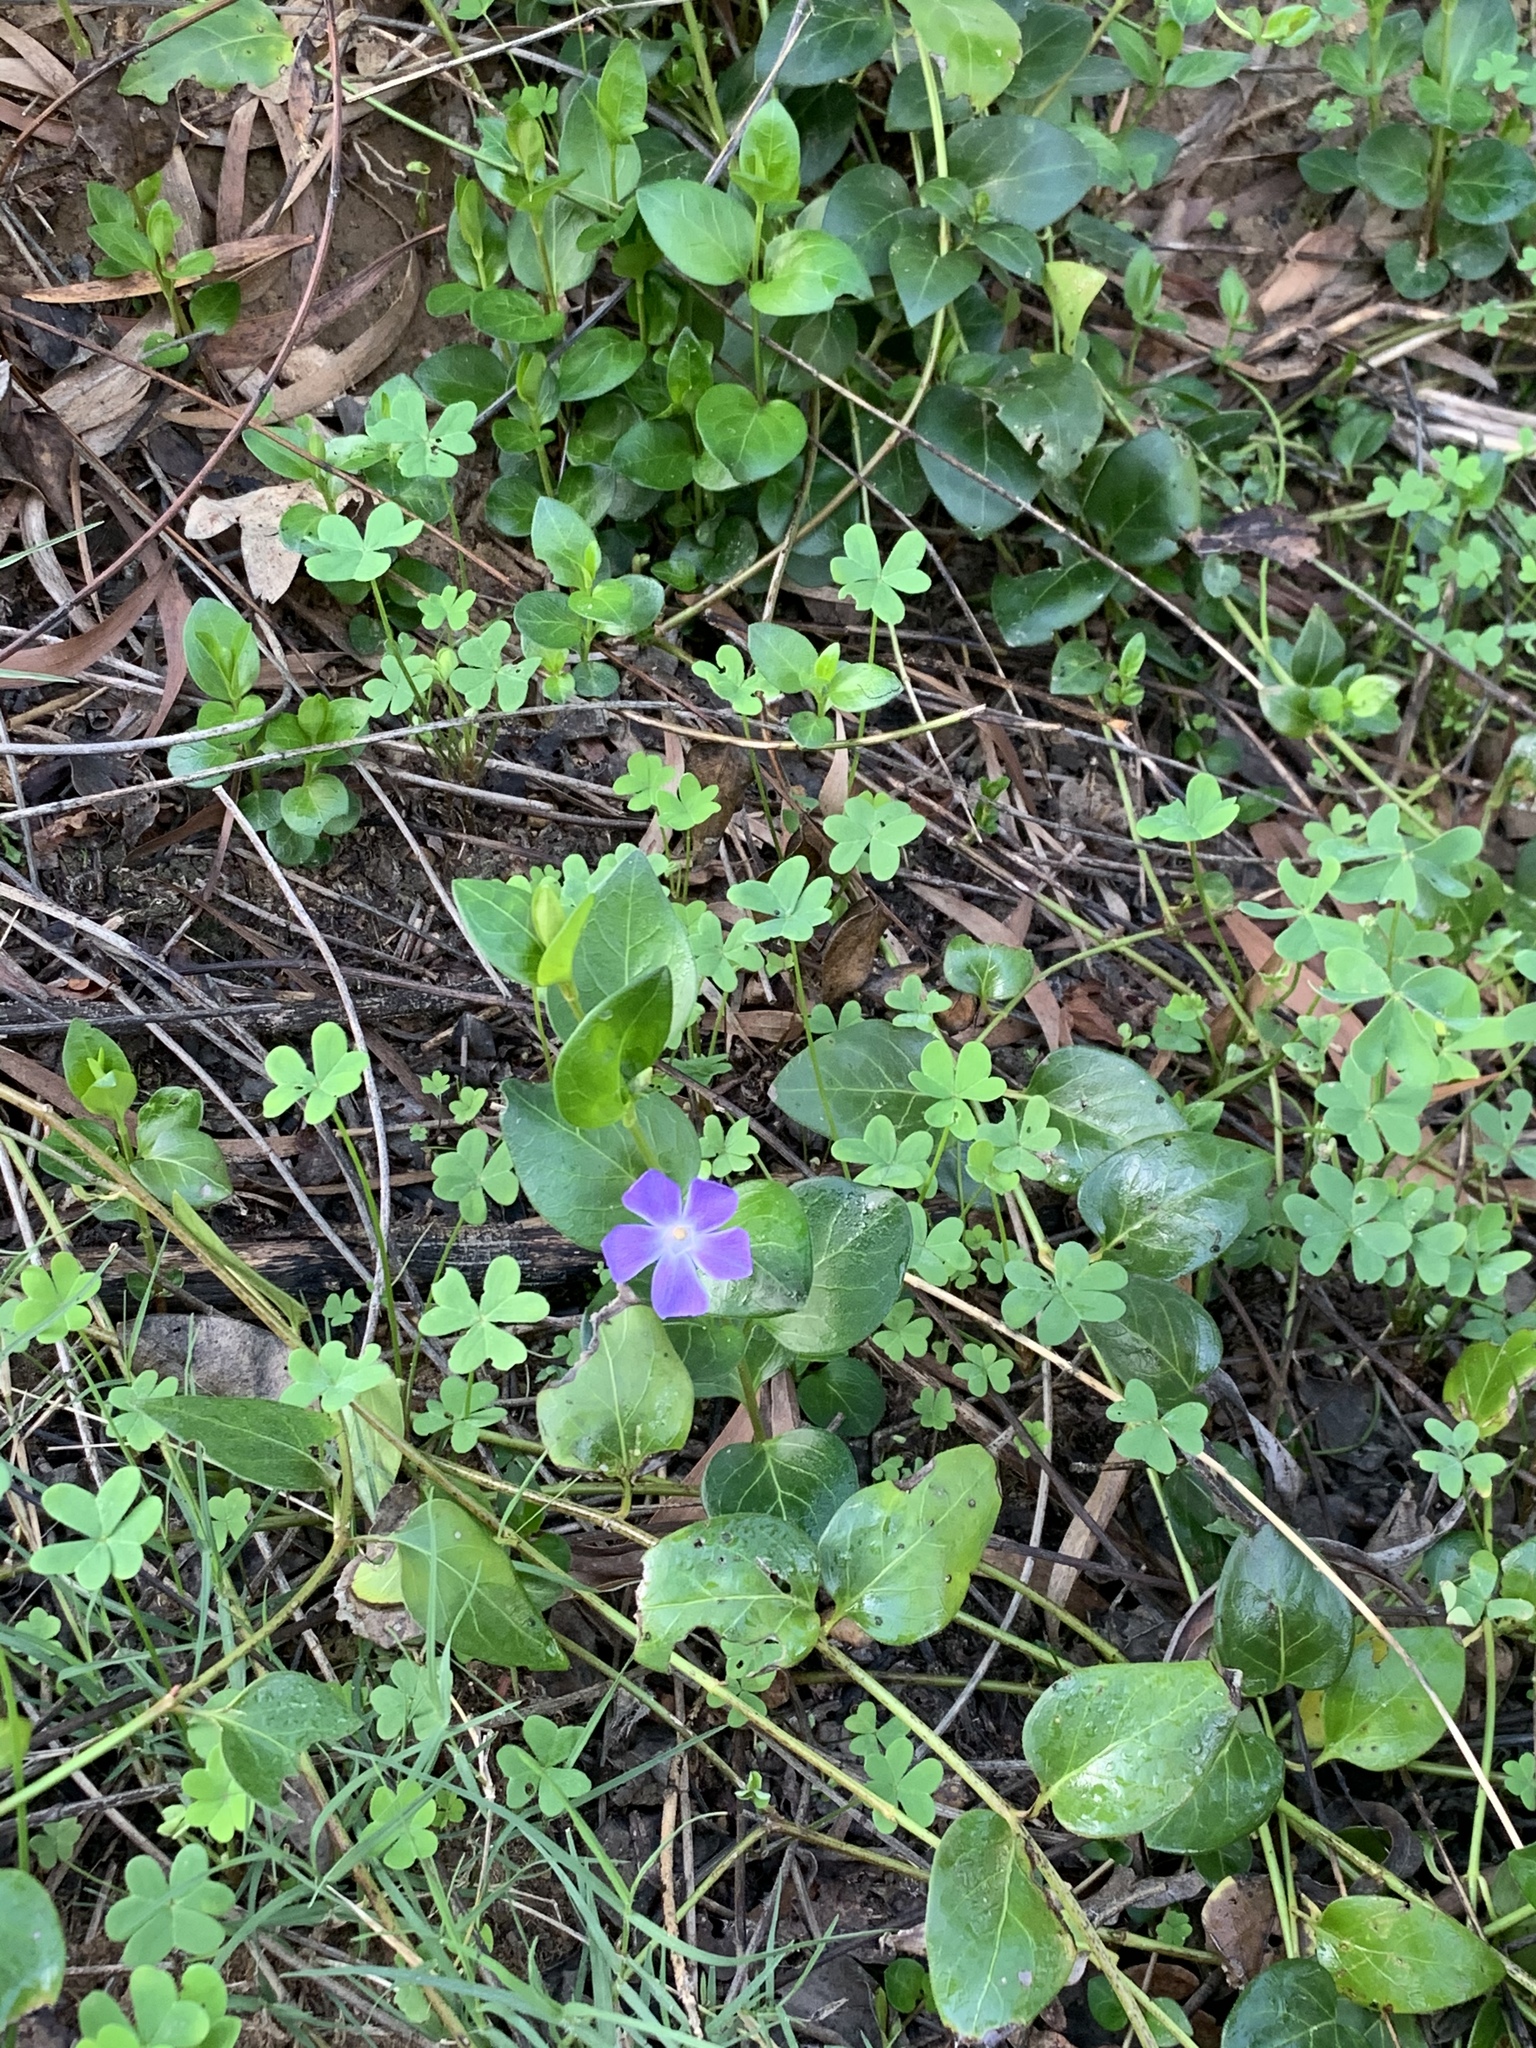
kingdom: Plantae
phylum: Tracheophyta
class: Magnoliopsida
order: Gentianales
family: Apocynaceae
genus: Vinca
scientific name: Vinca major
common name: Greater periwinkle
